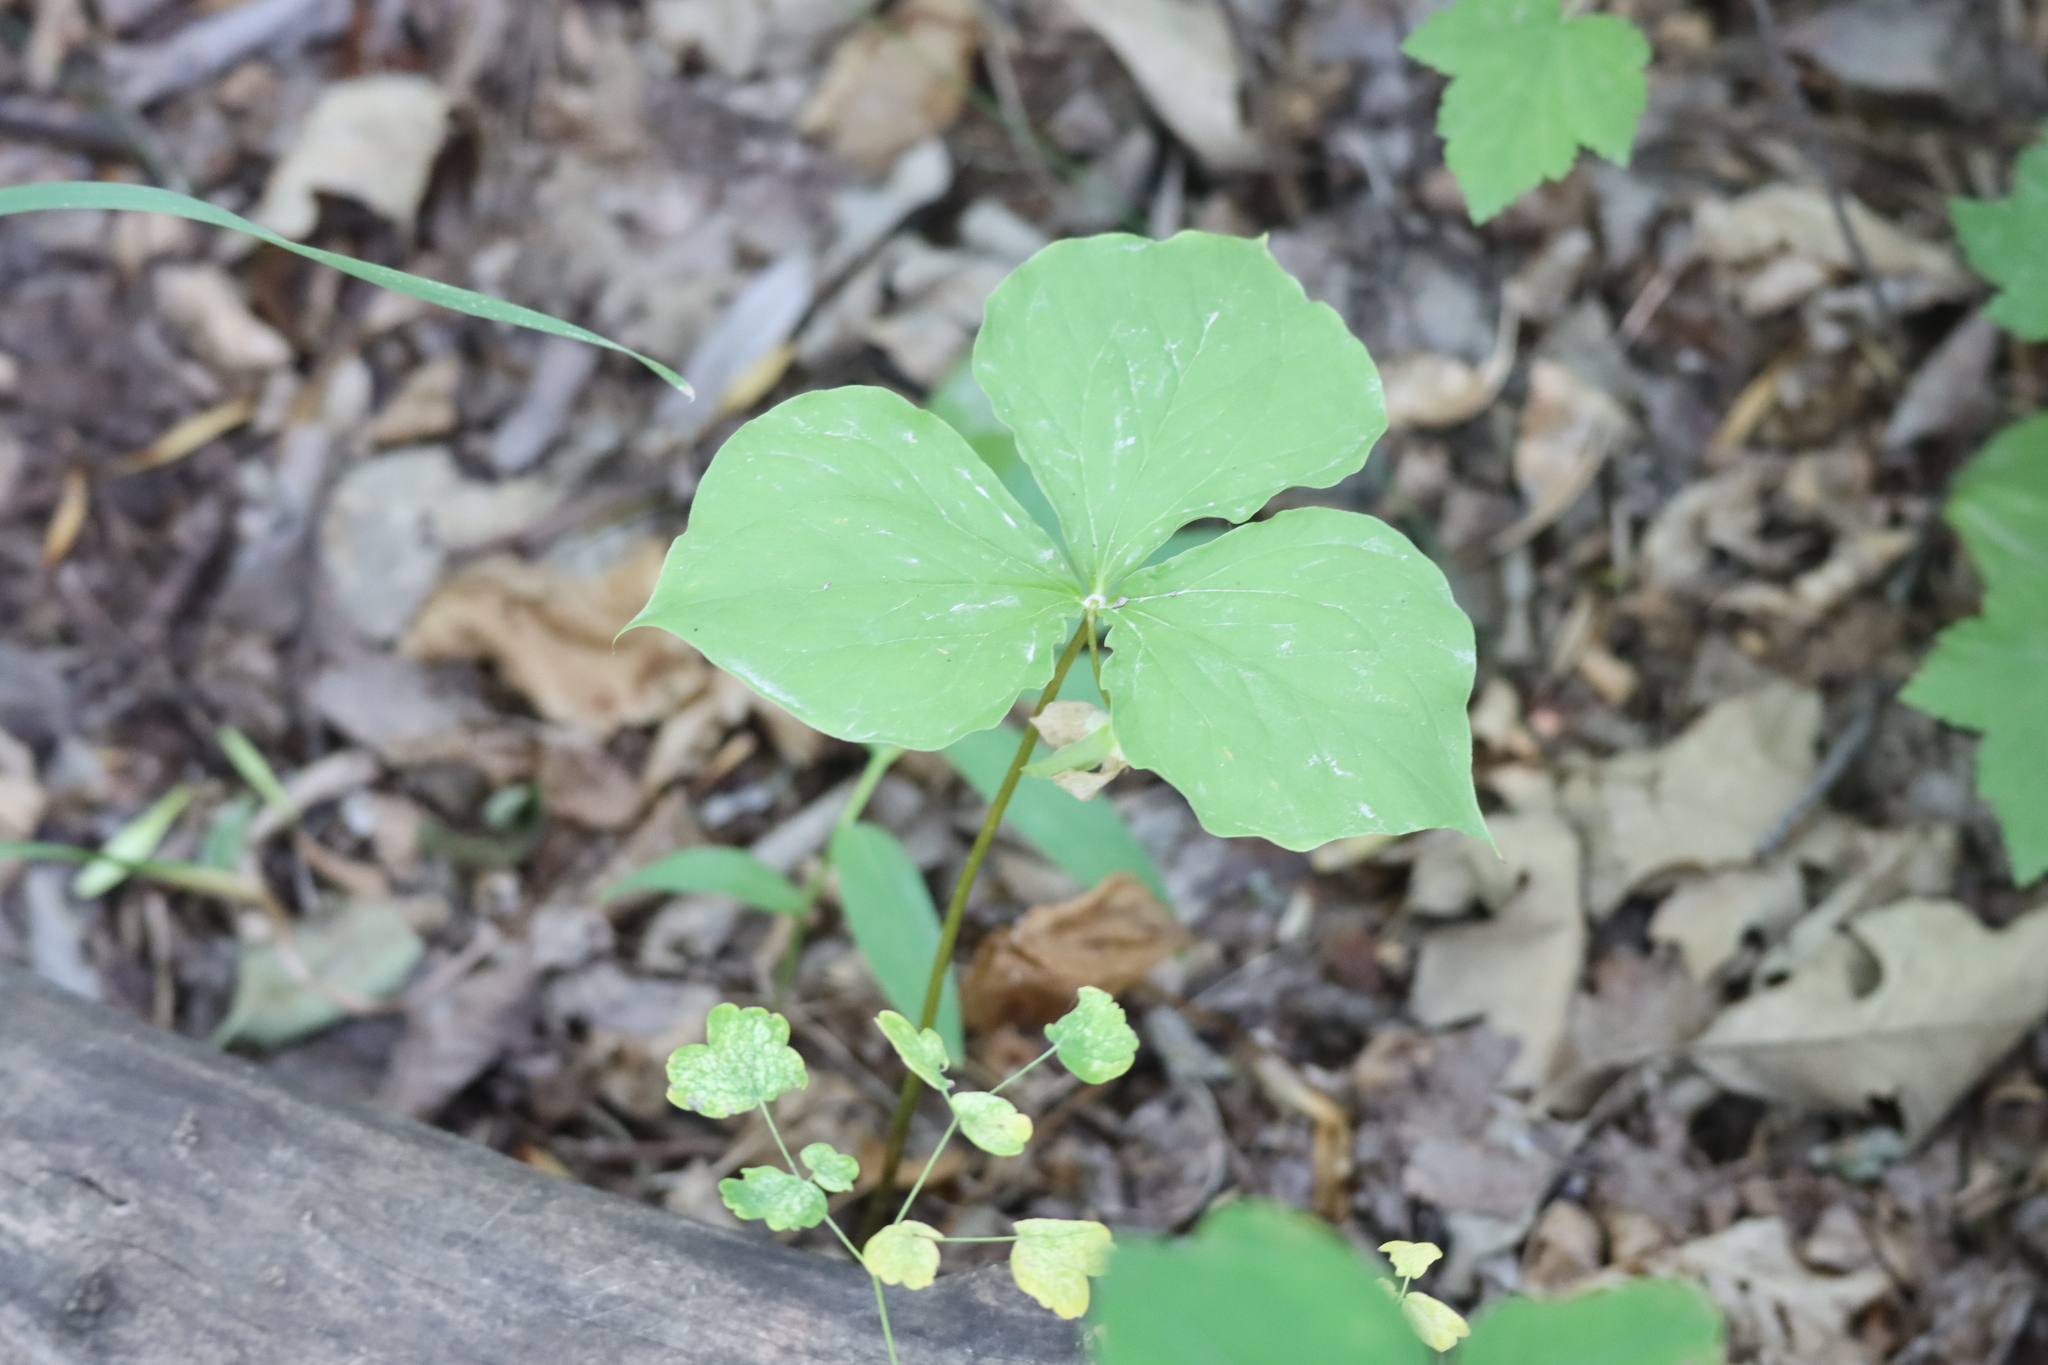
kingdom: Plantae
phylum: Tracheophyta
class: Liliopsida
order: Liliales
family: Melanthiaceae
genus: Trillium
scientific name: Trillium cernuum
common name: Nodding trillium
